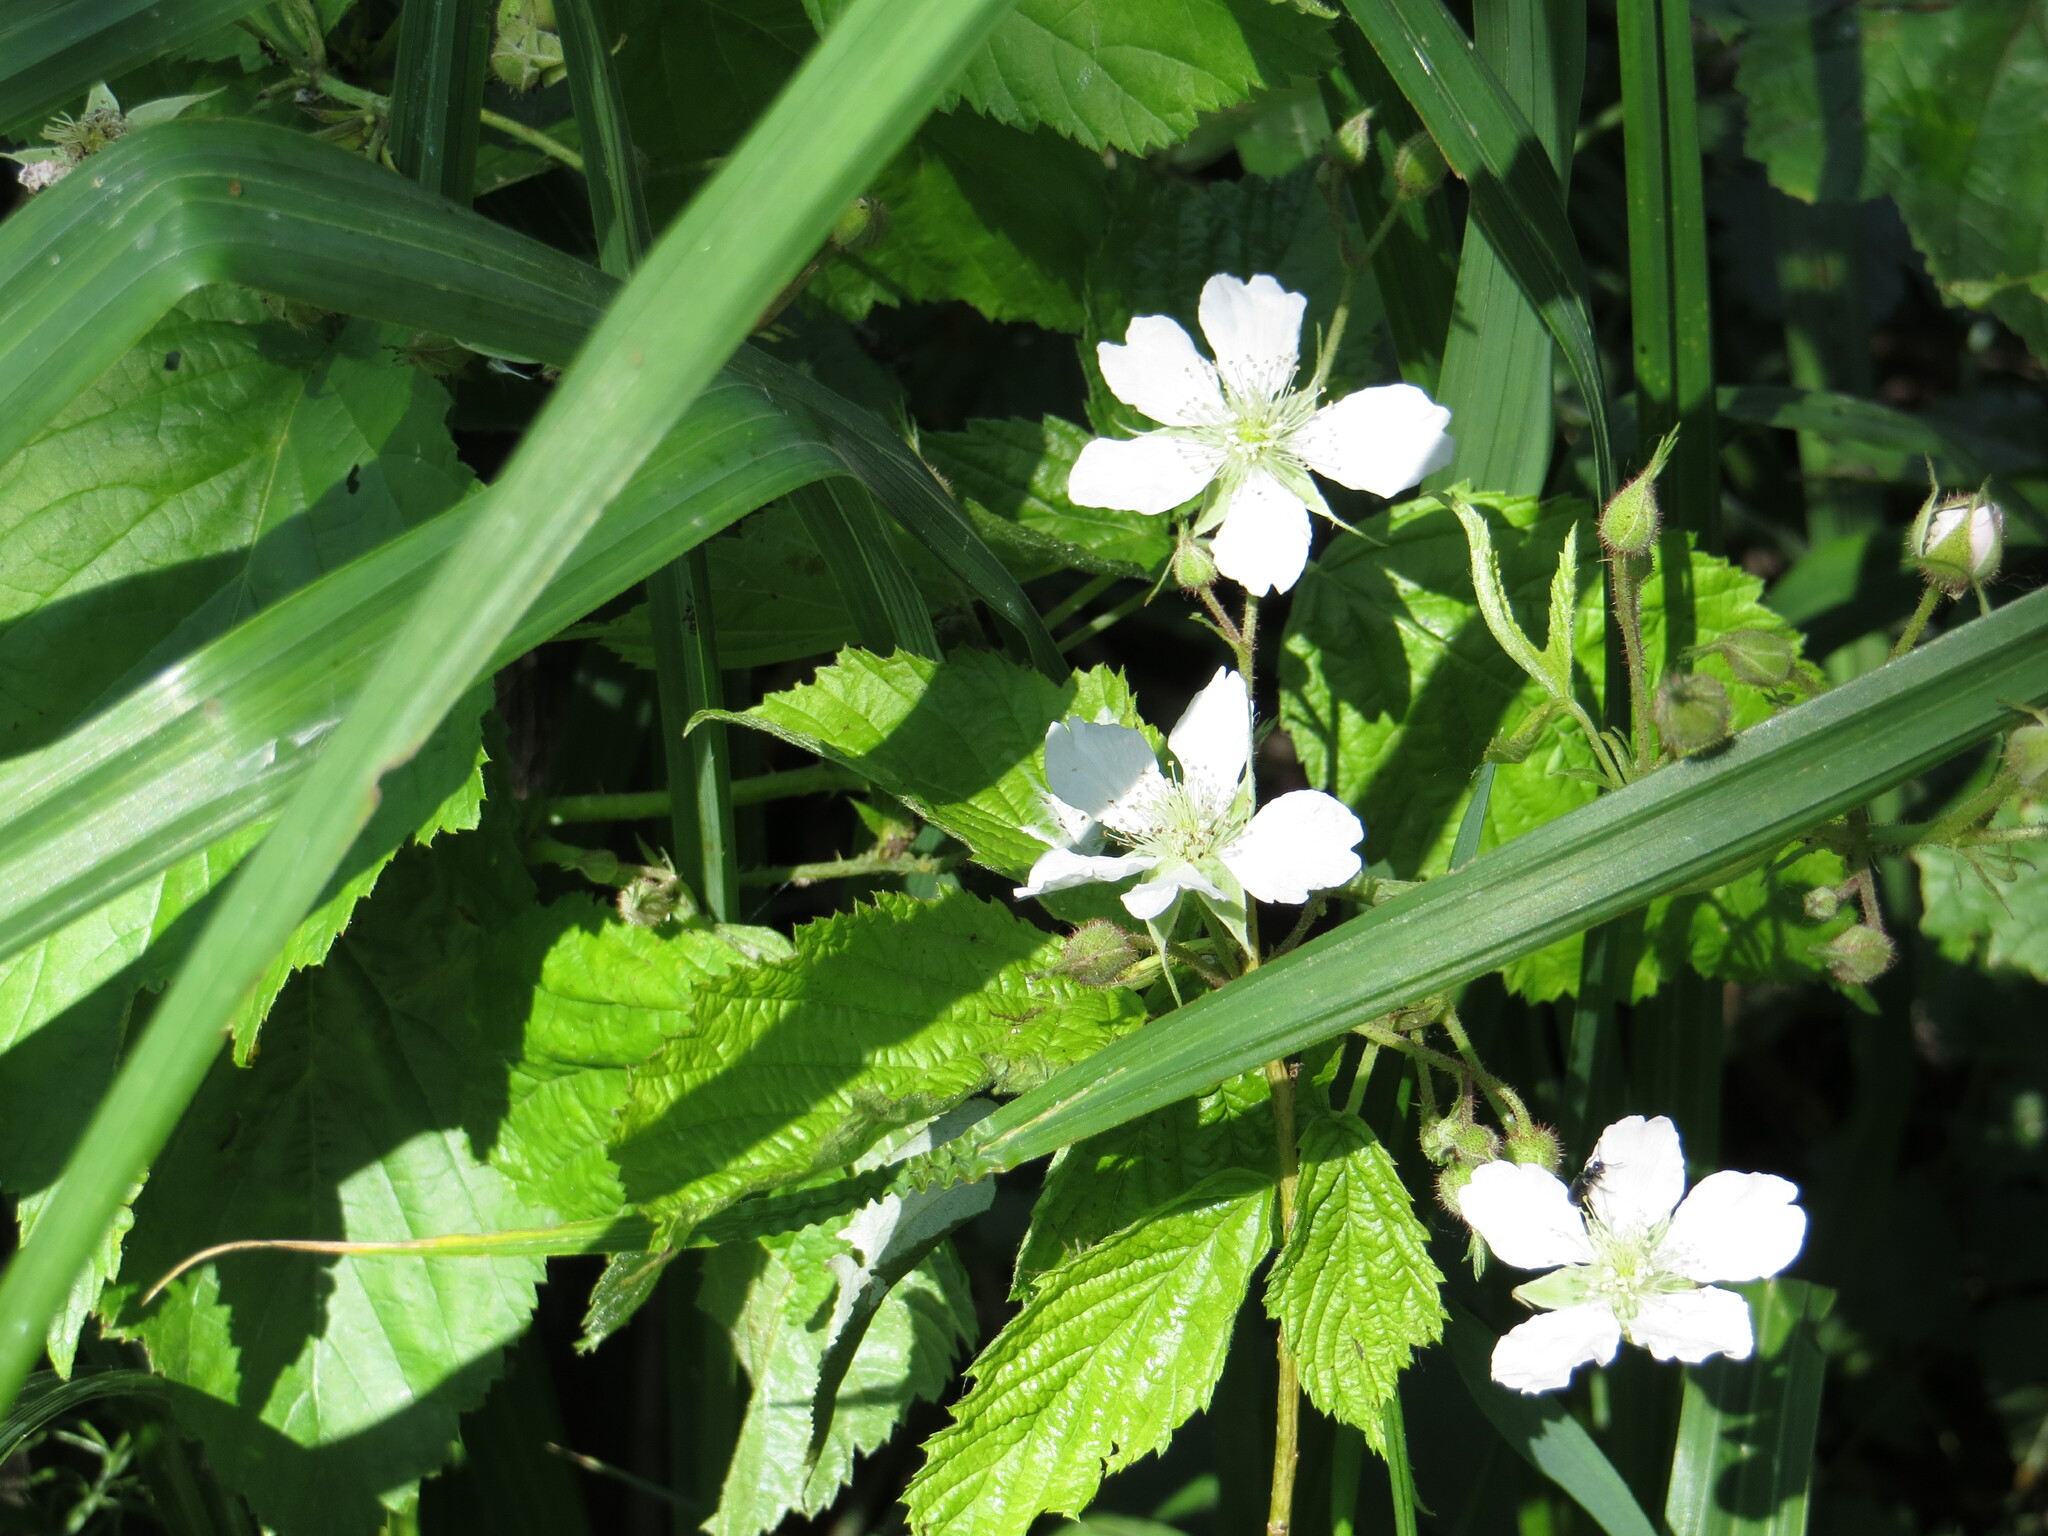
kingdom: Plantae
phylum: Tracheophyta
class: Magnoliopsida
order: Rosales
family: Rosaceae
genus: Rubus
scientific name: Rubus caesius
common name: Dewberry
